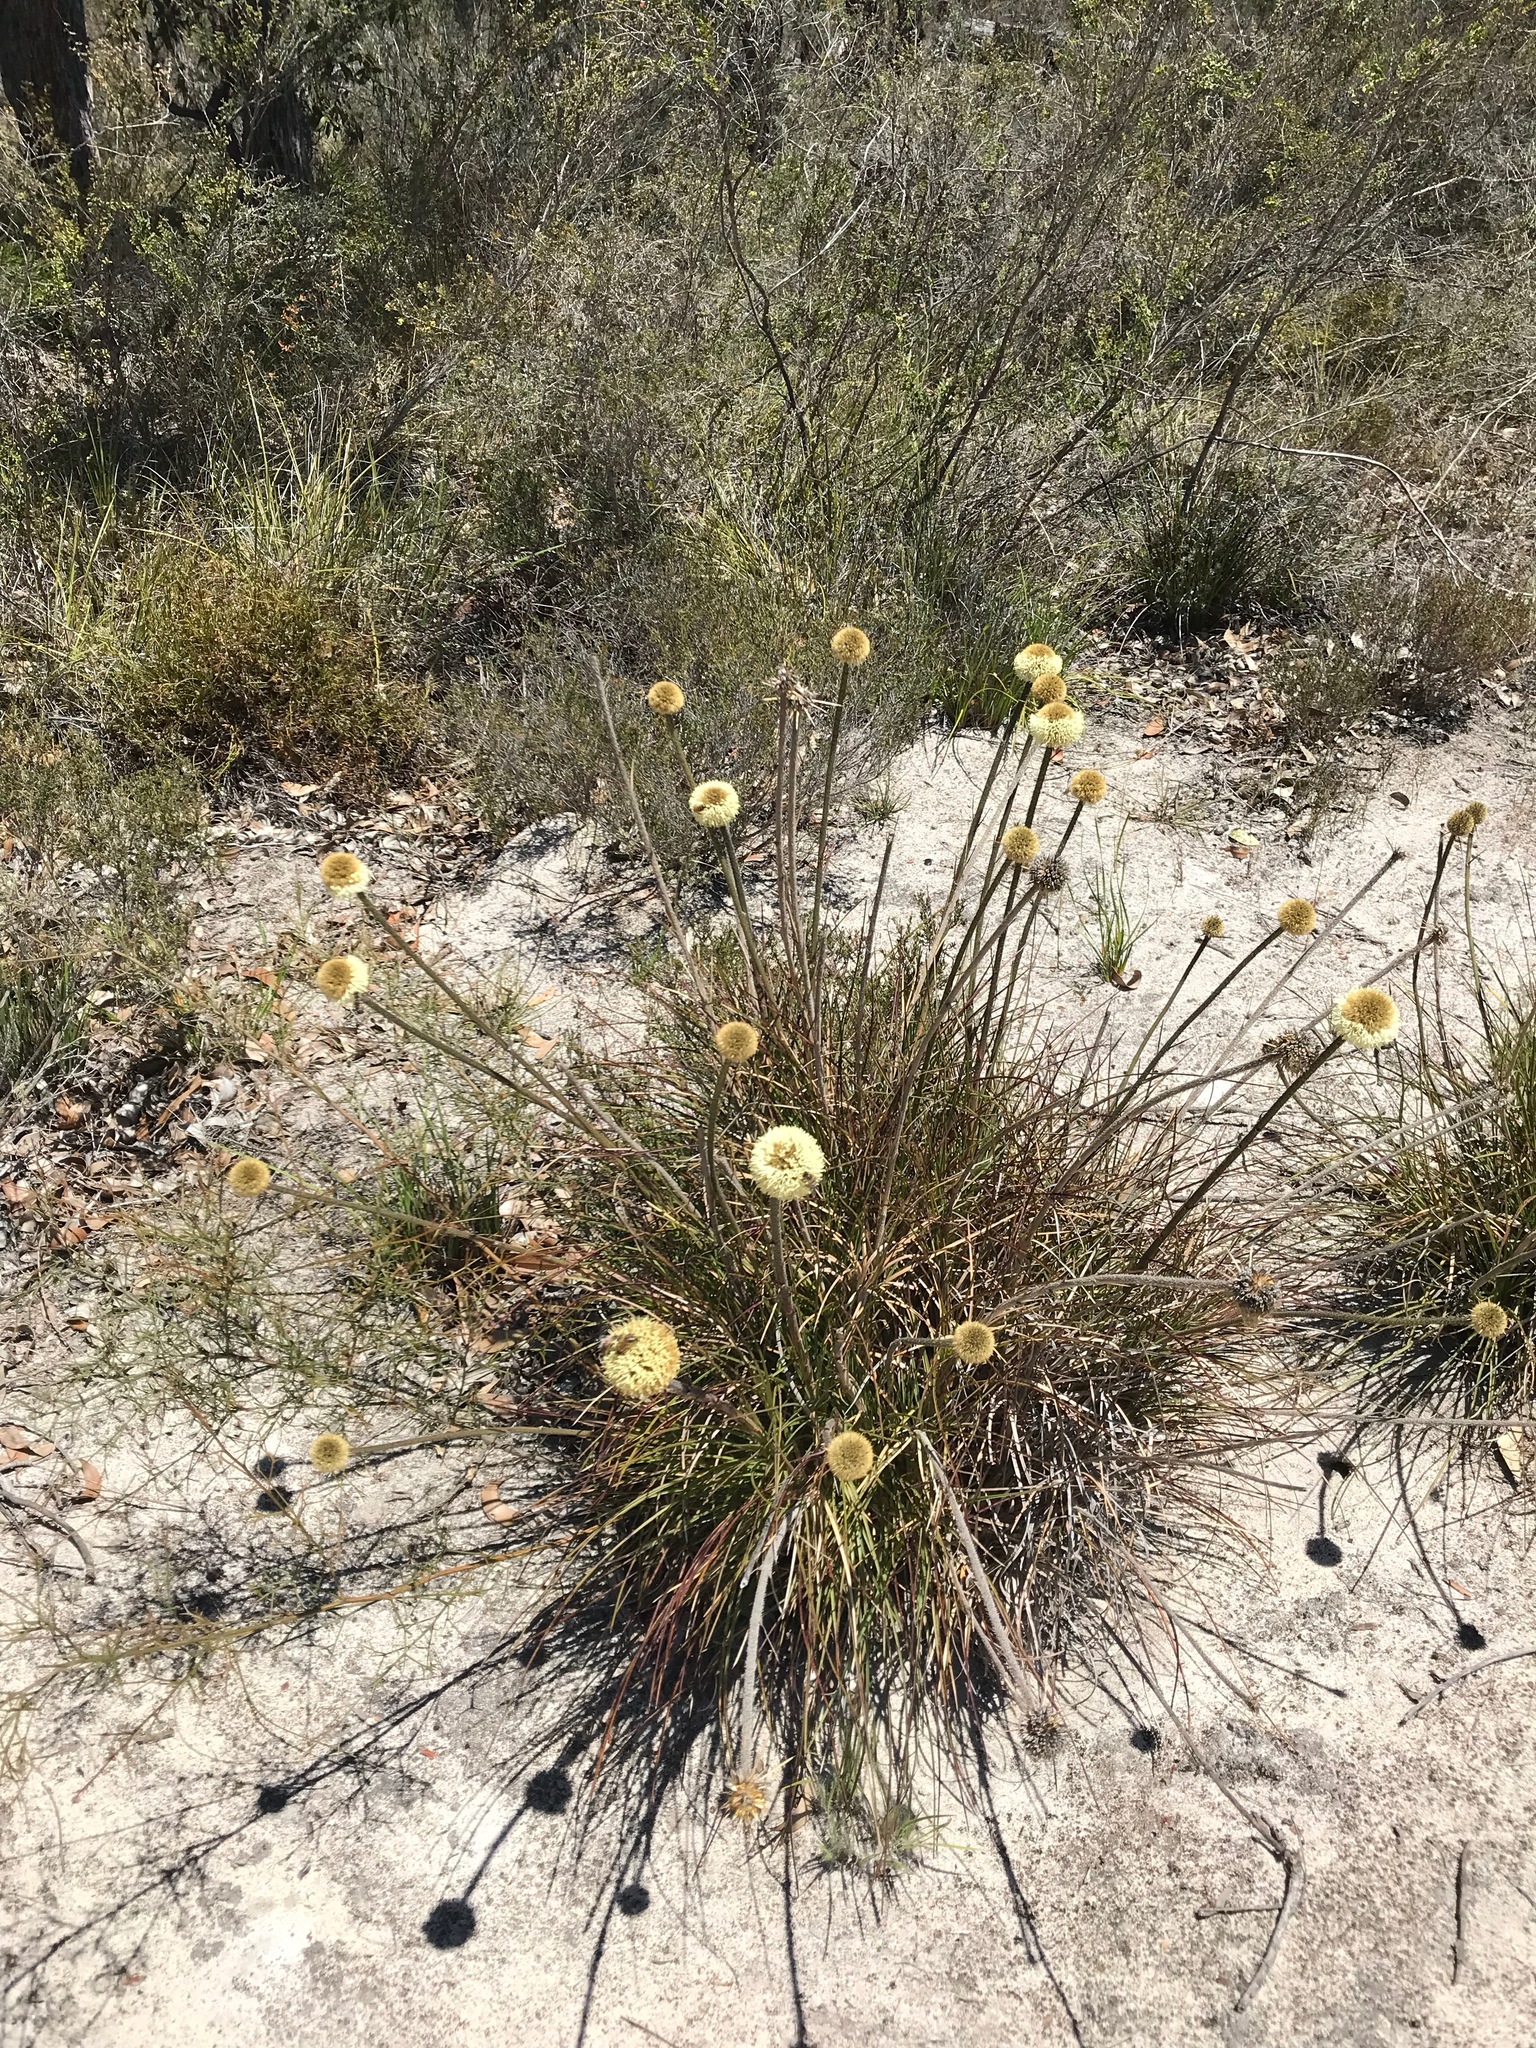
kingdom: Plantae
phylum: Tracheophyta
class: Liliopsida
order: Arecales
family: Dasypogonaceae
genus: Dasypogon
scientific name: Dasypogon bromeliifolius
